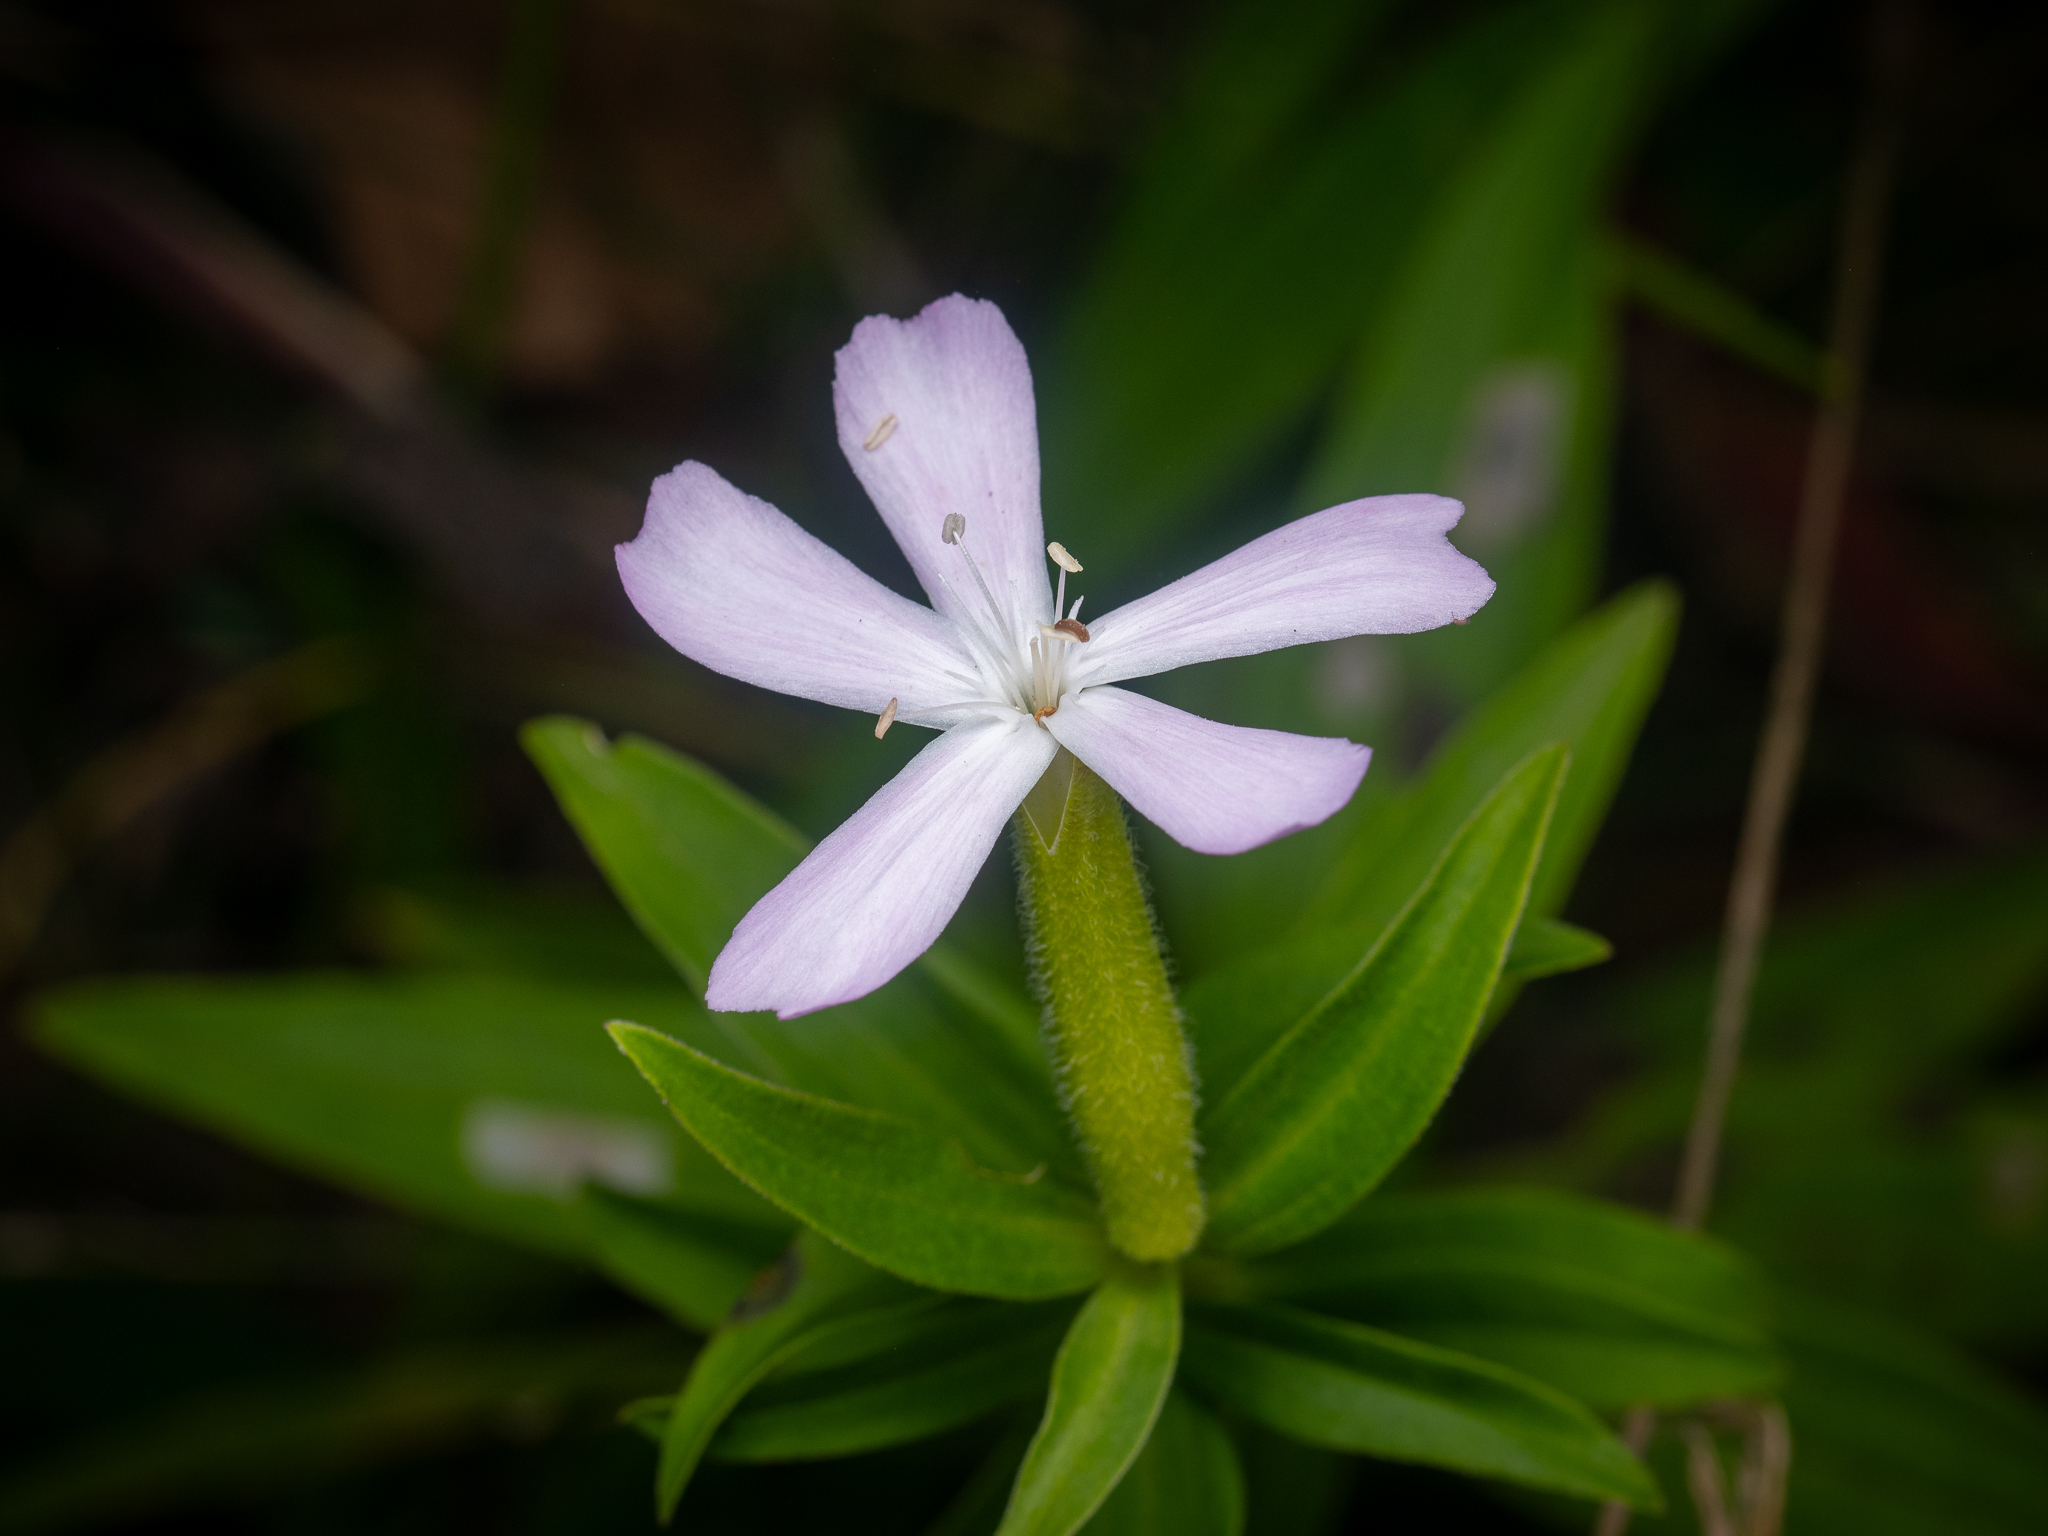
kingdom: Plantae
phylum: Tracheophyta
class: Magnoliopsida
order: Caryophyllales
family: Caryophyllaceae
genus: Saponaria
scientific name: Saponaria officinalis
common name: Soapwort
